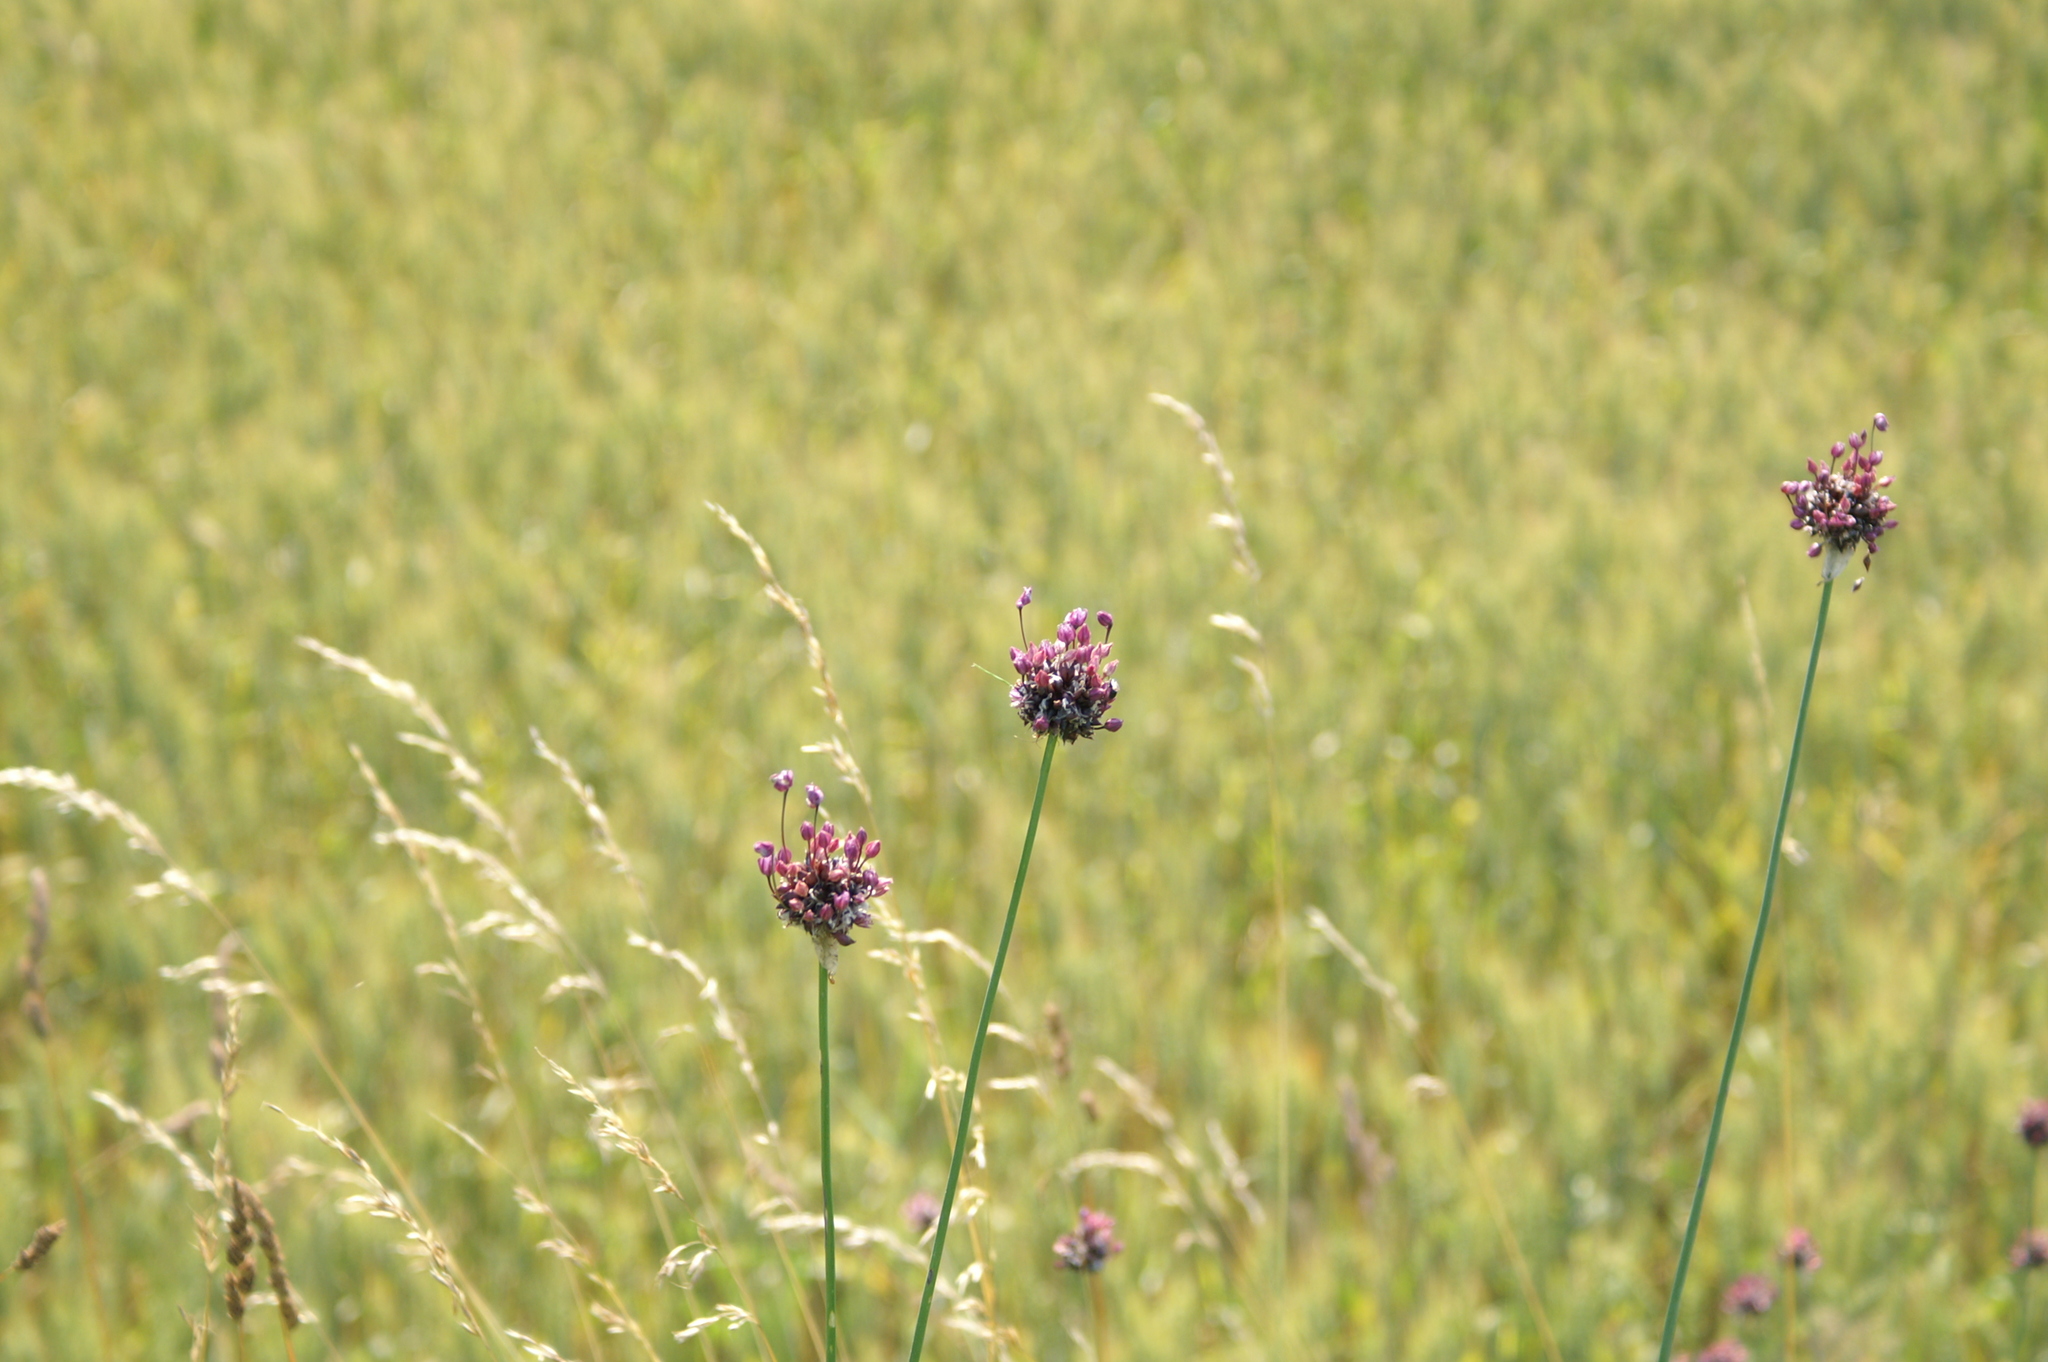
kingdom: Plantae
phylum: Tracheophyta
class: Liliopsida
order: Asparagales
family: Amaryllidaceae
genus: Allium
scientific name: Allium scorodoprasum
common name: Sand leek
